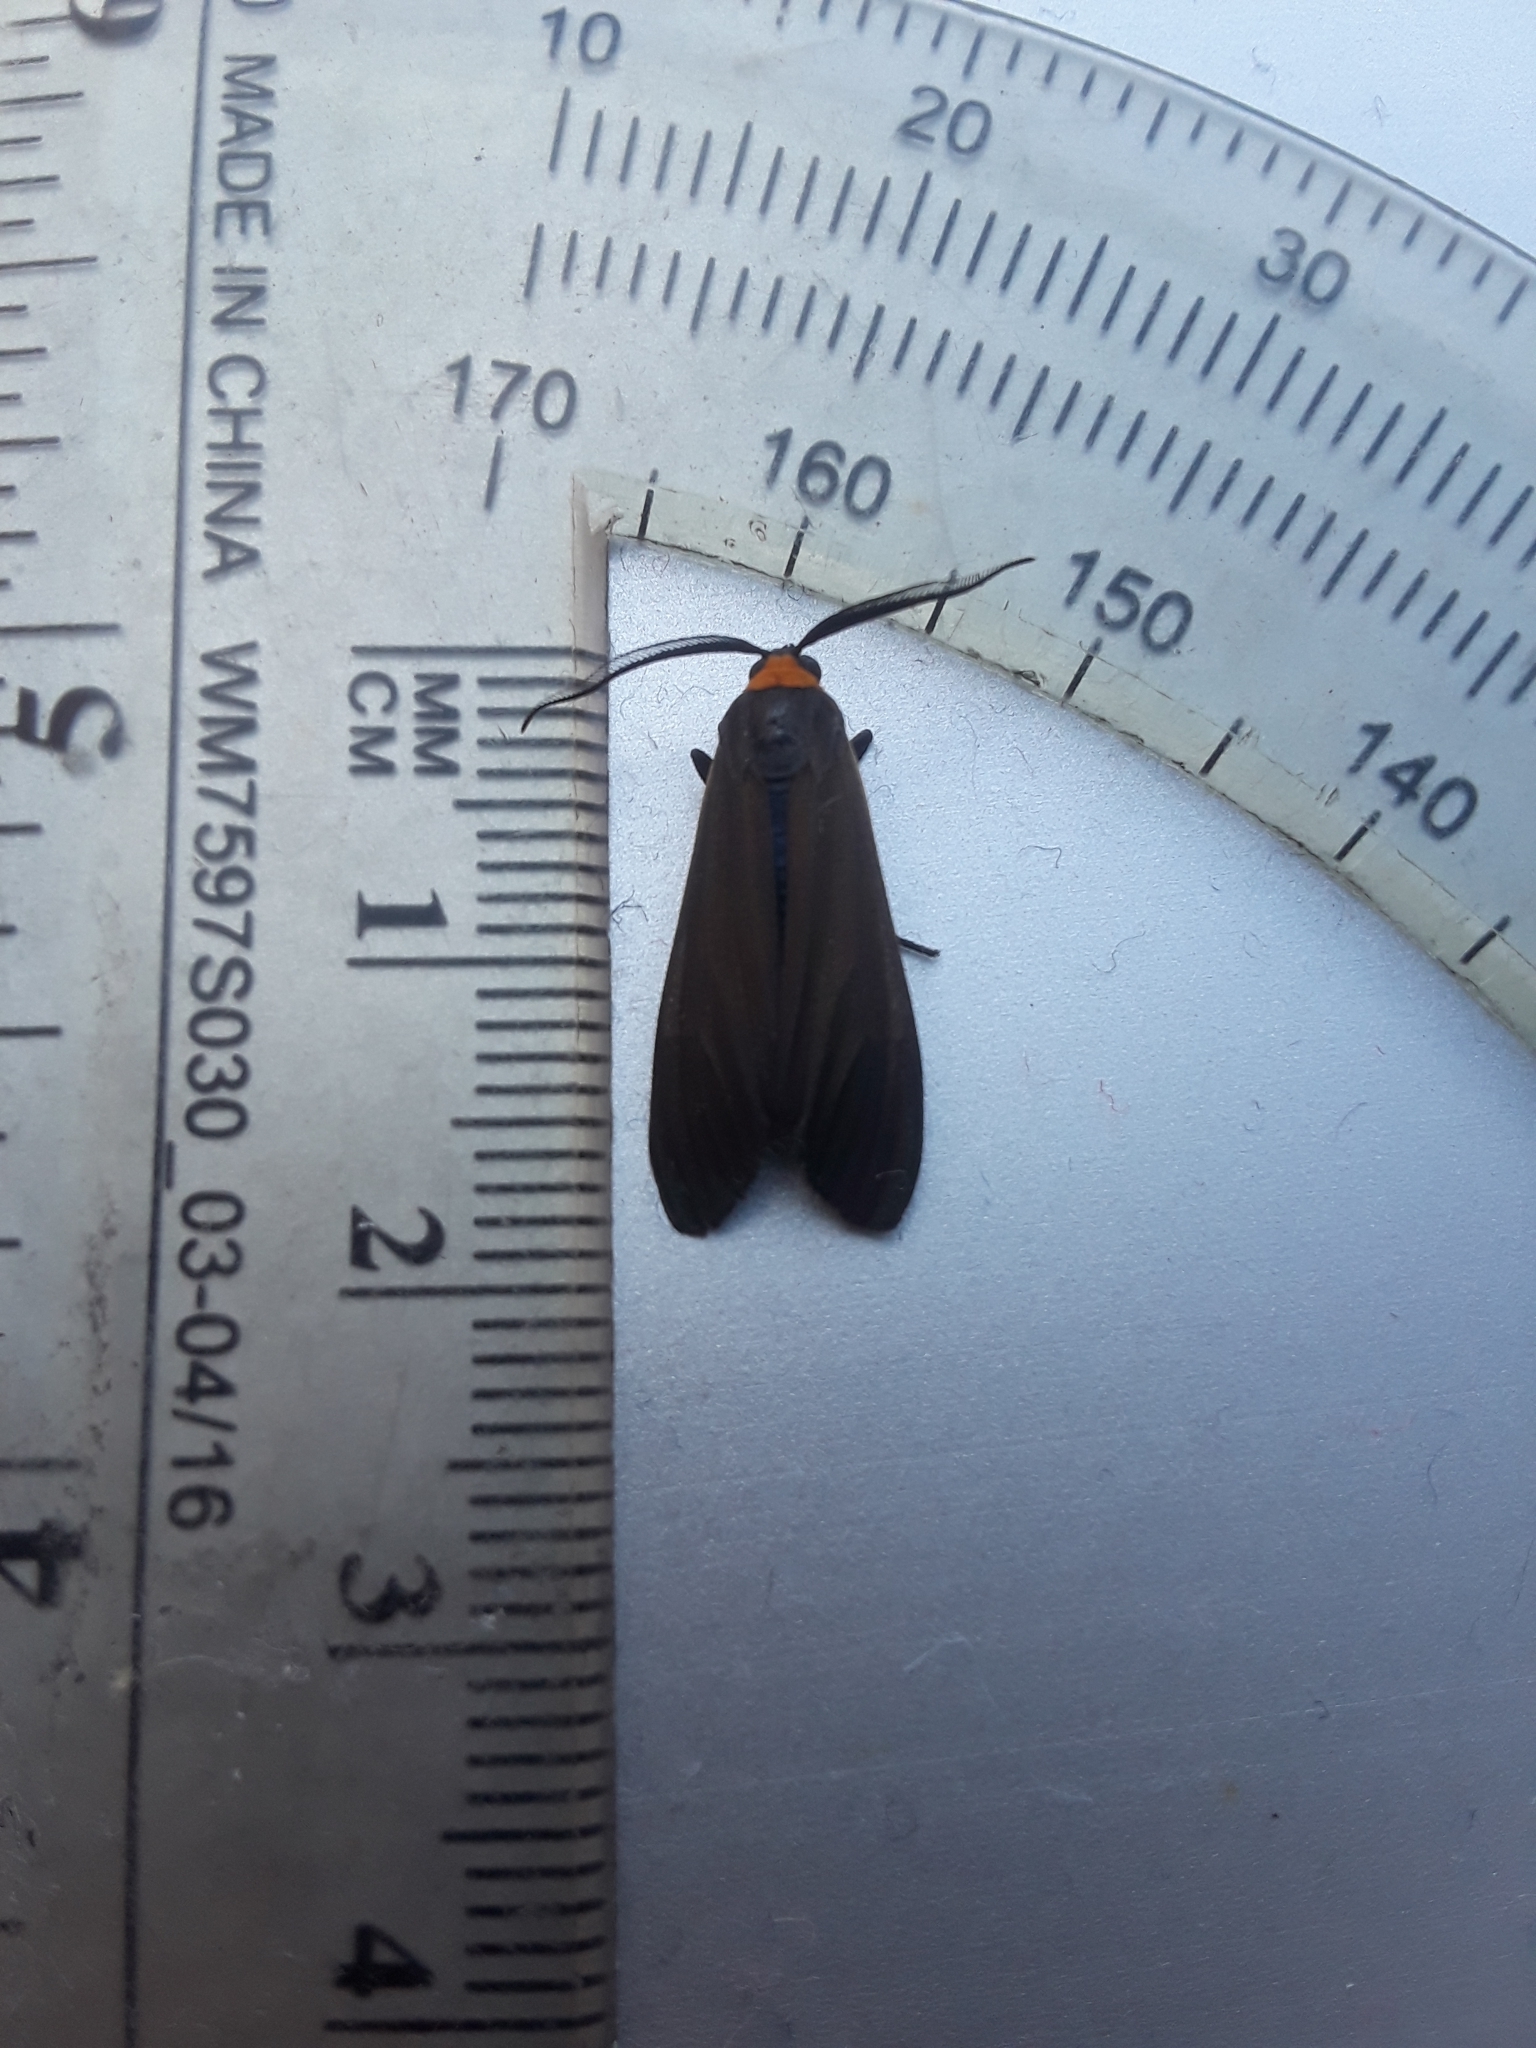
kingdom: Animalia
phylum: Arthropoda
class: Insecta
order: Lepidoptera
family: Erebidae
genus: Cisseps
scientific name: Cisseps fulvicollis
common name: Yellow-collared scape moth
